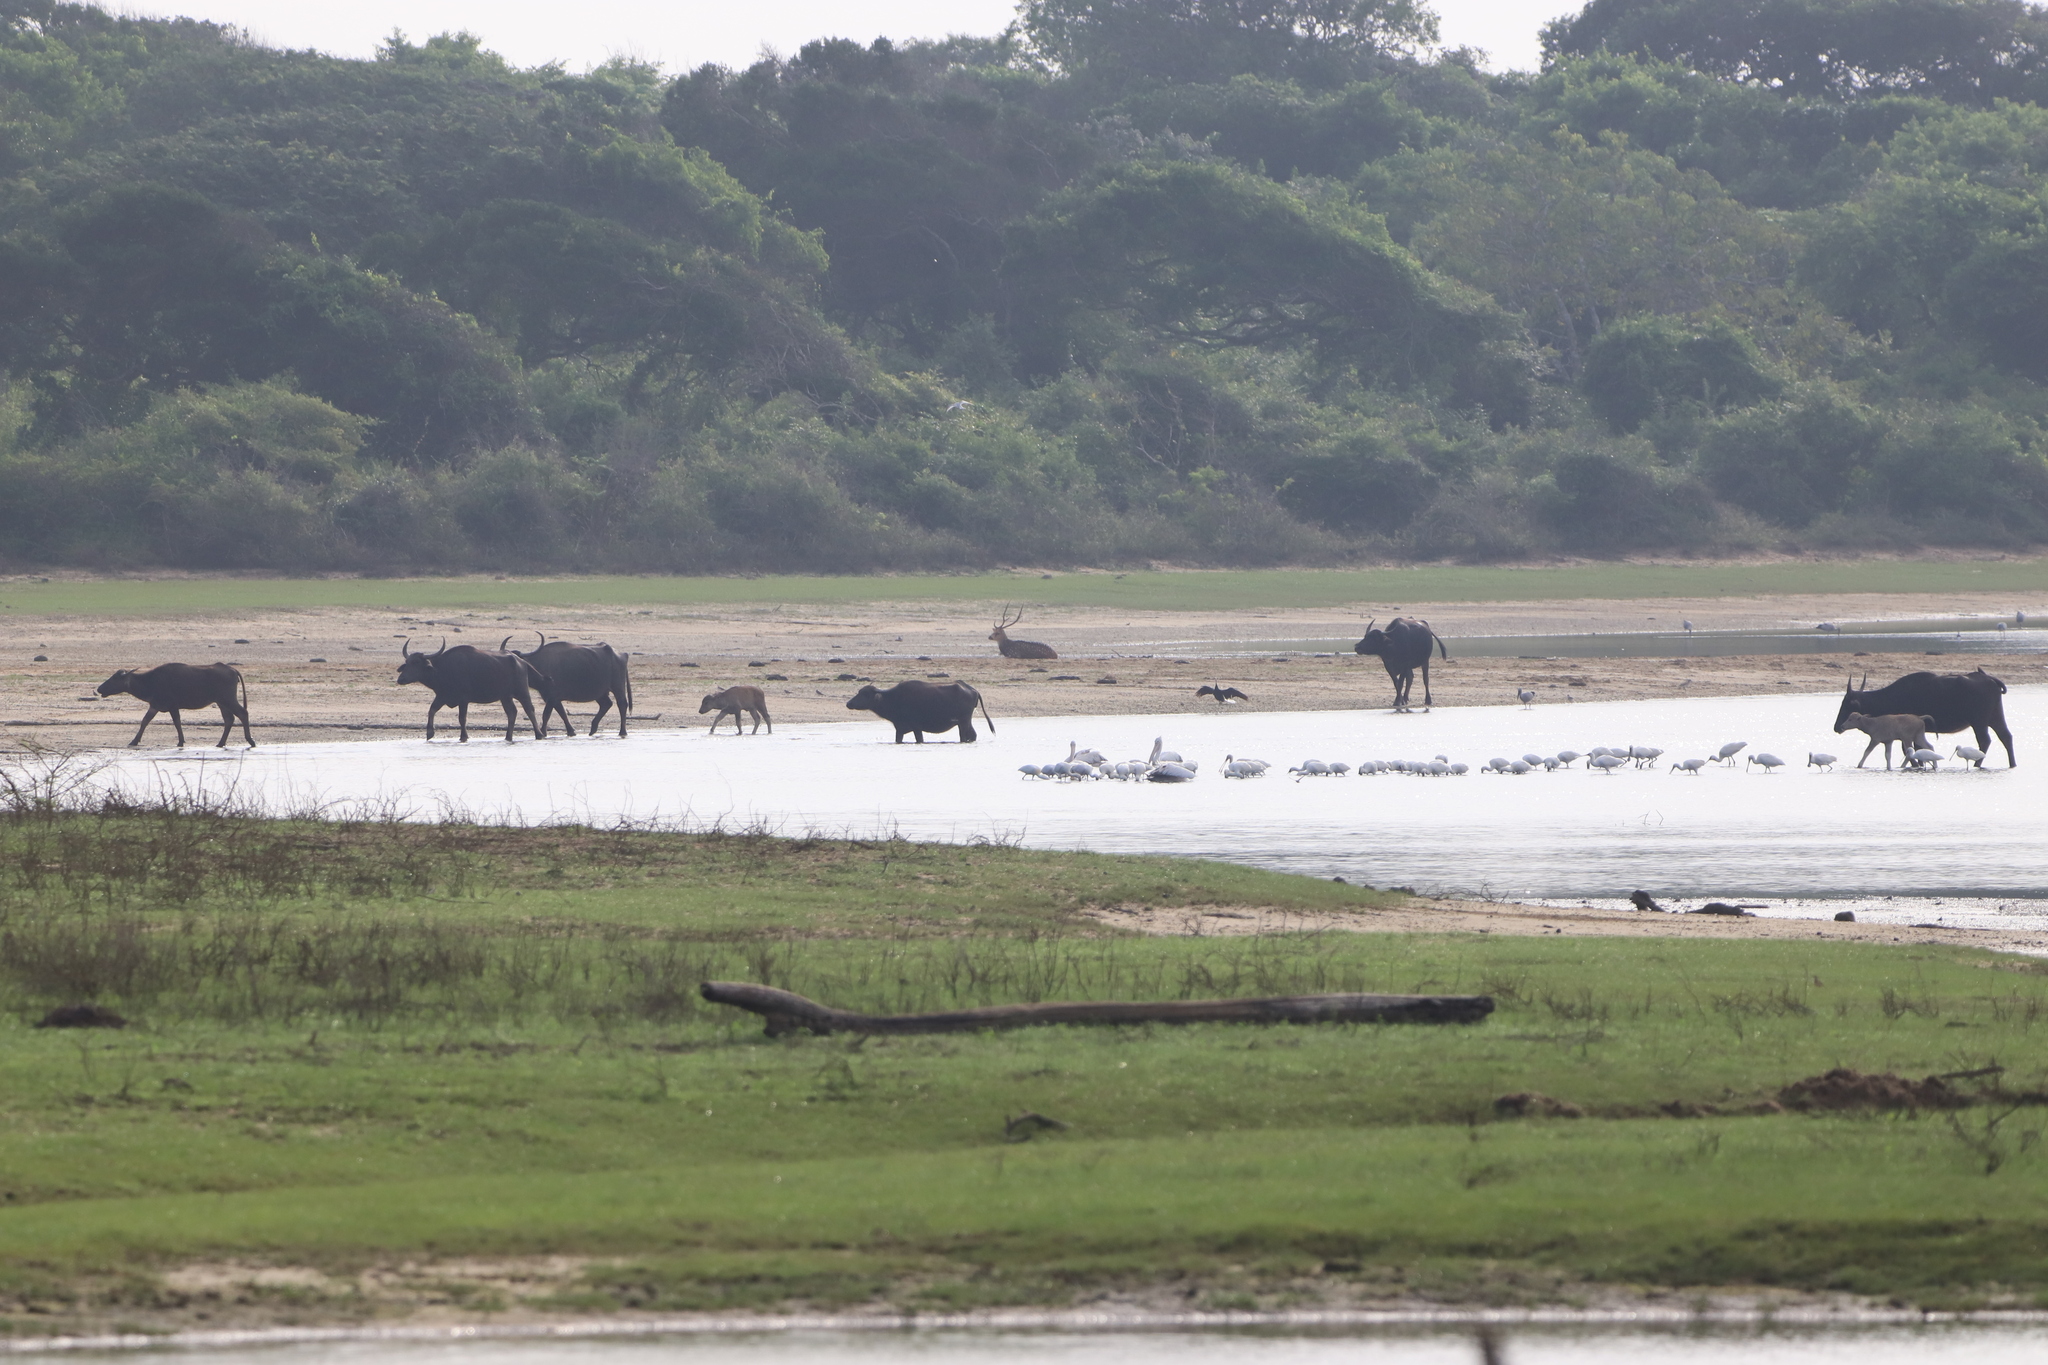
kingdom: Animalia
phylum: Chordata
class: Aves
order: Ciconiiformes
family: Ciconiidae
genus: Anastomus
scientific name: Anastomus oscitans
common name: Asian openbill
